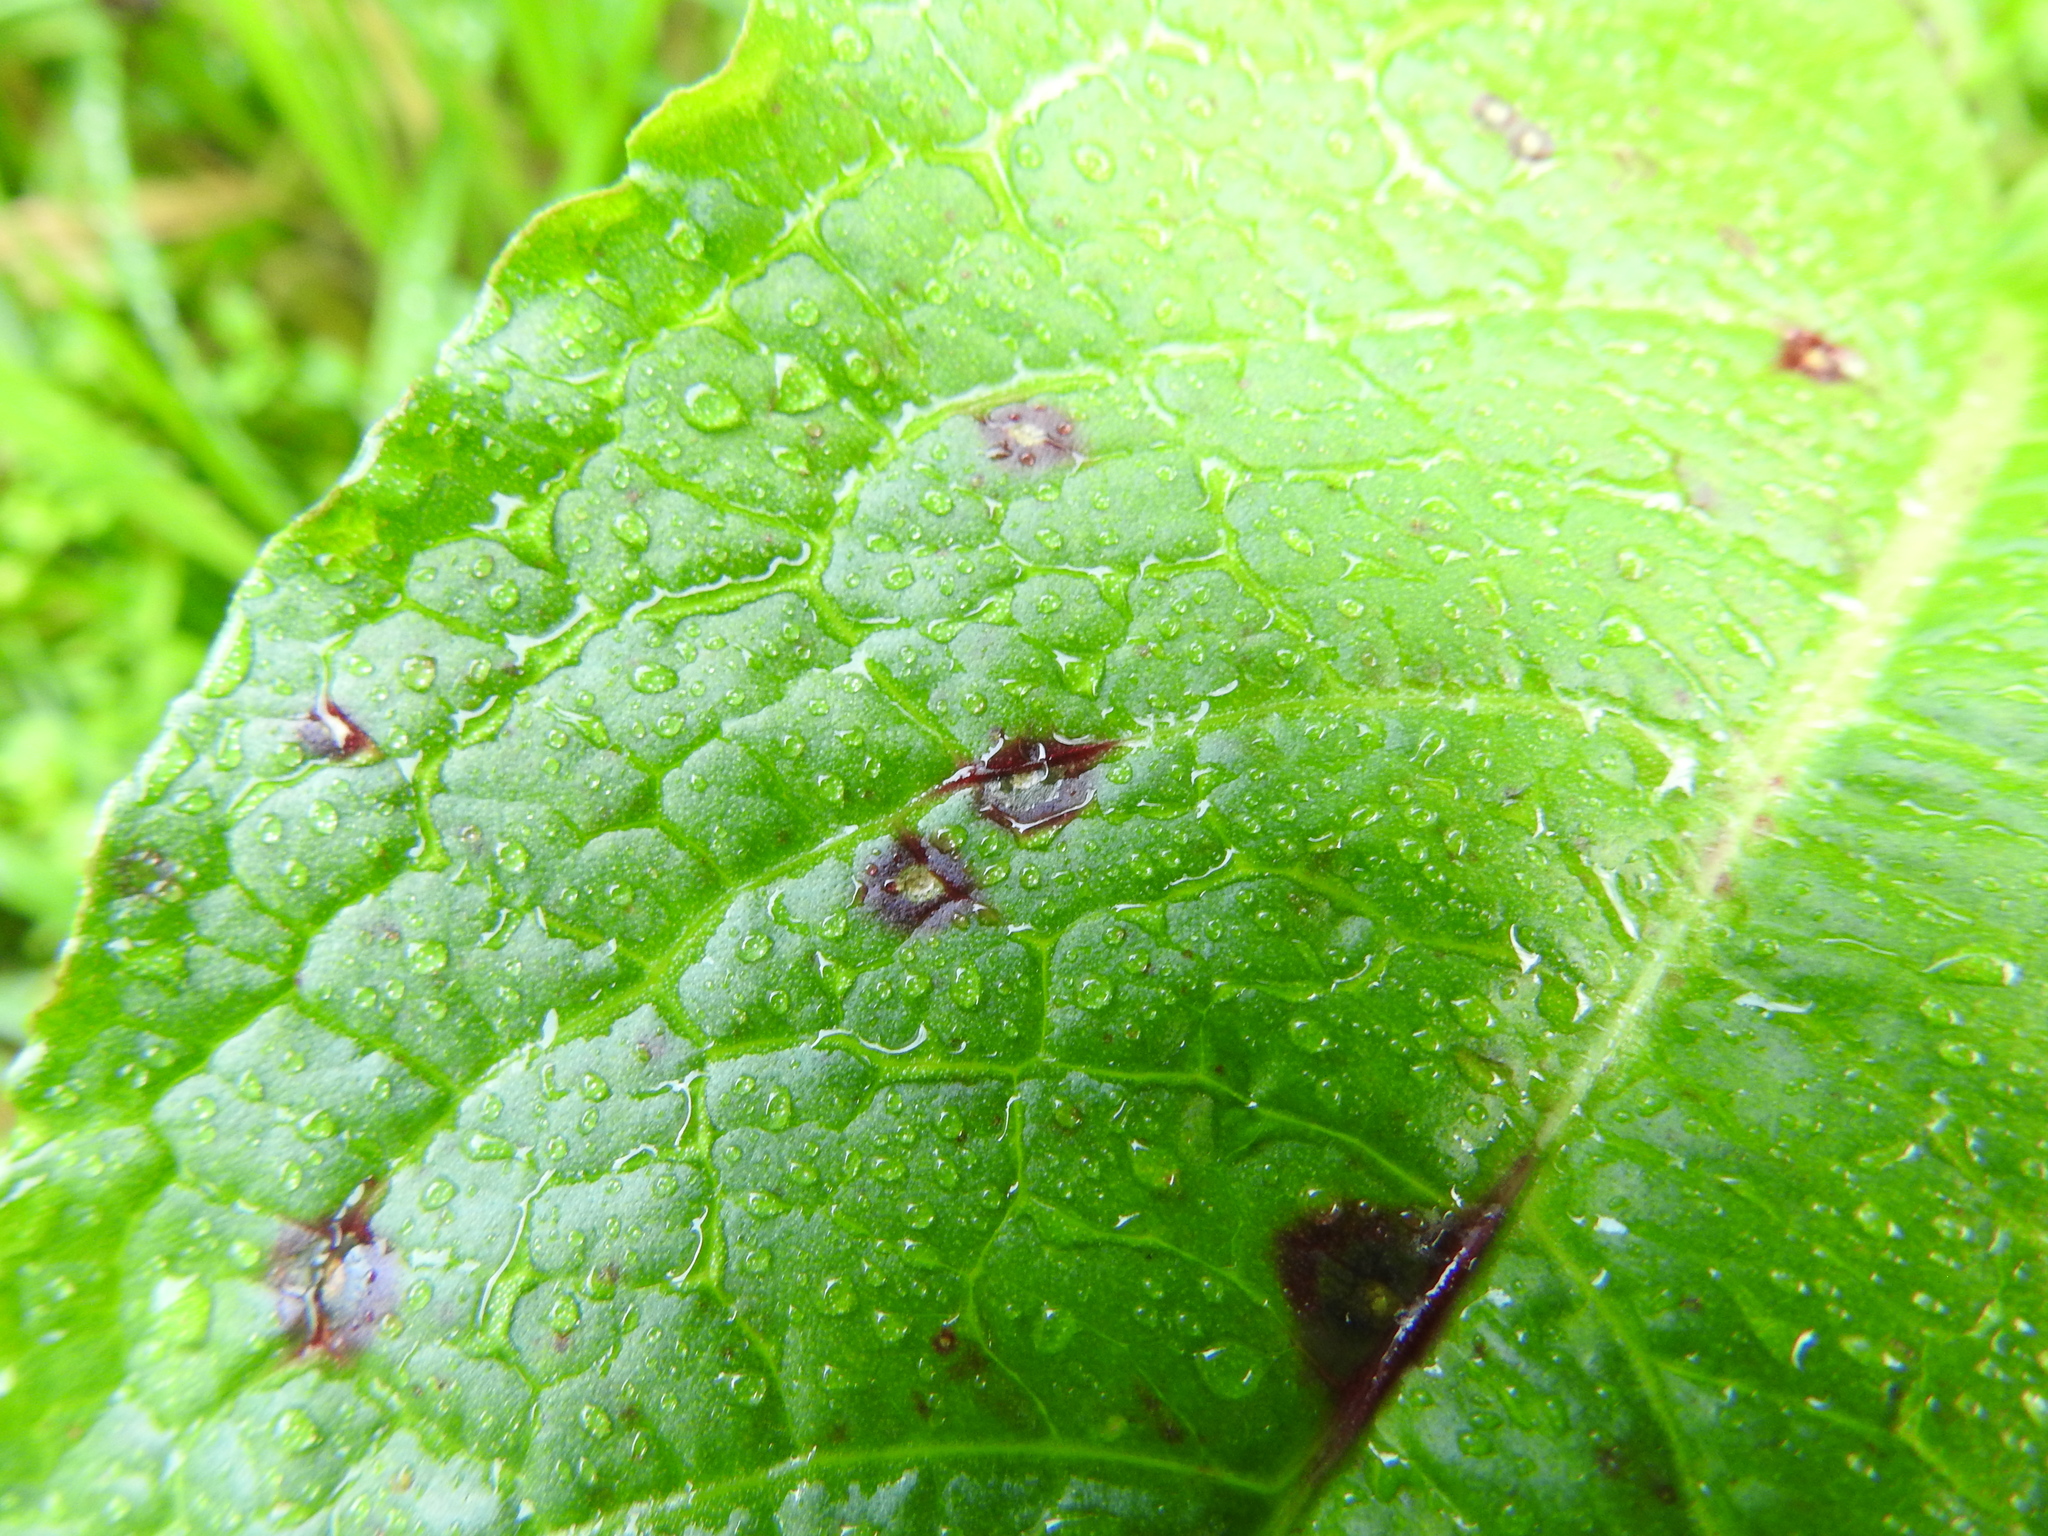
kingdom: Fungi
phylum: Ascomycota
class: Dothideomycetes
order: Mycosphaerellales
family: Mycosphaerellaceae
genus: Ramularia
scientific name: Ramularia rubella
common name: Red dock spot
